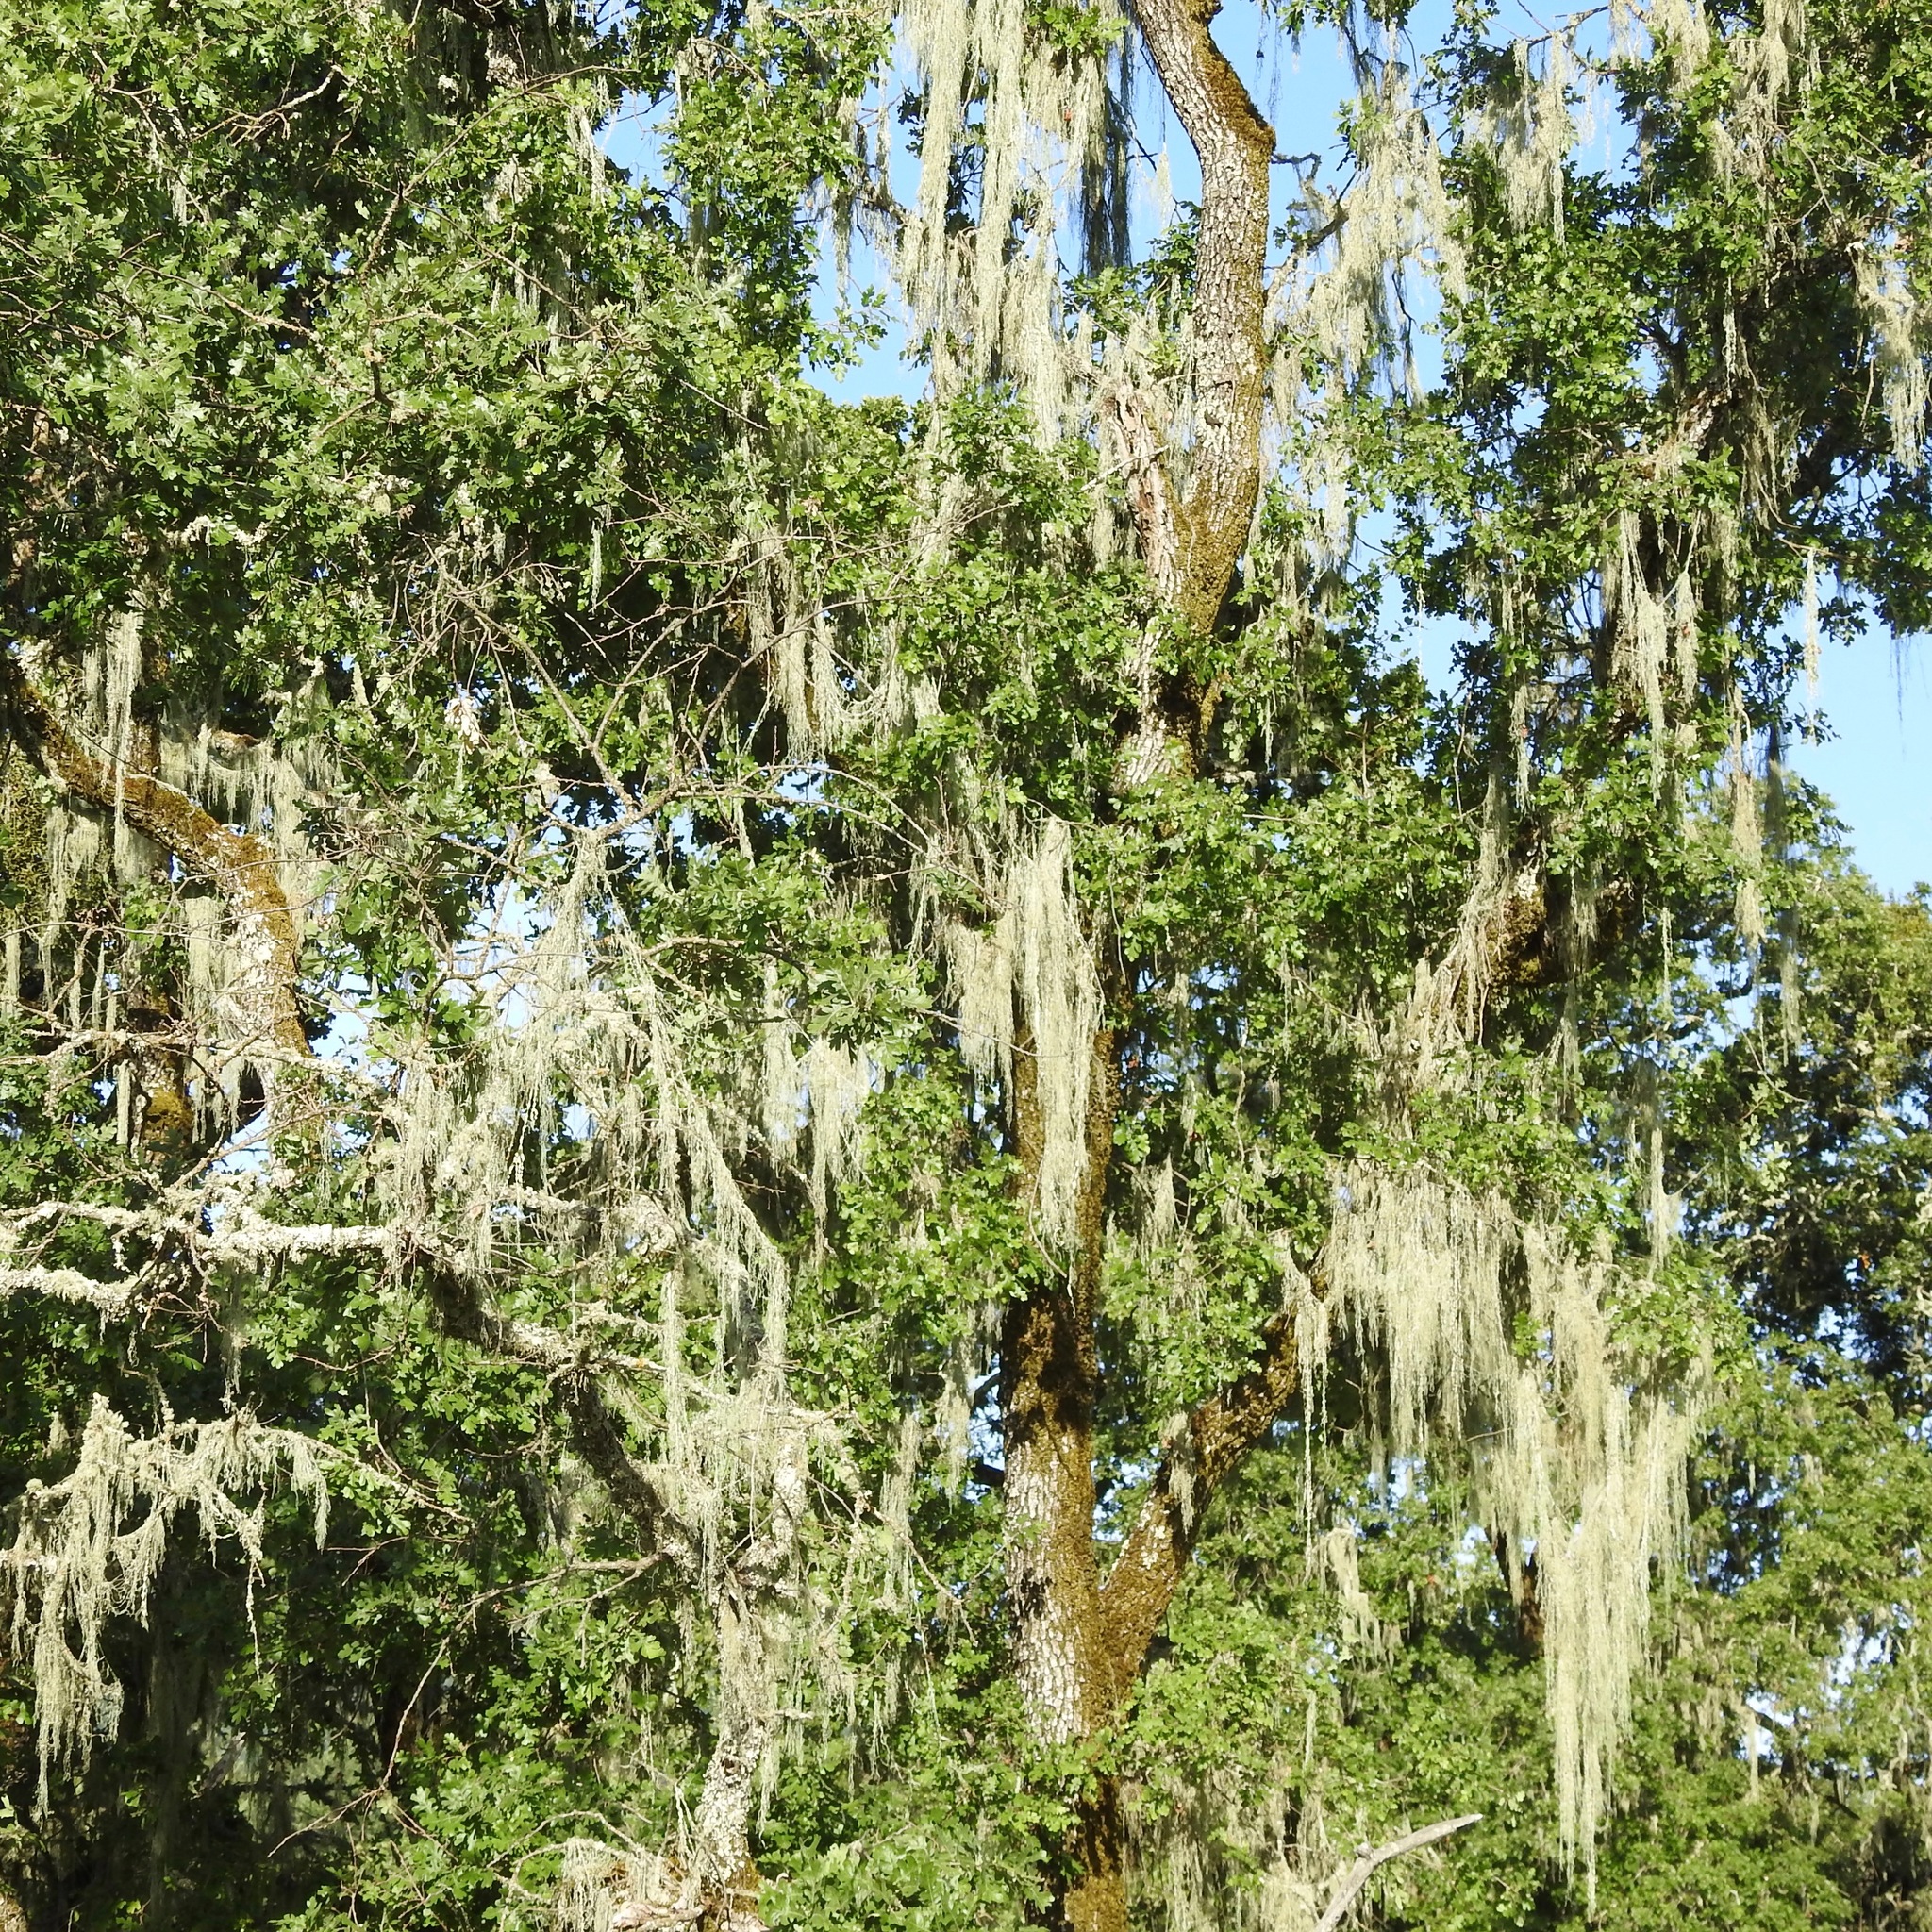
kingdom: Fungi
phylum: Ascomycota
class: Lecanoromycetes
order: Lecanorales
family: Ramalinaceae
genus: Ramalina
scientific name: Ramalina menziesii
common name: Lace lichen
